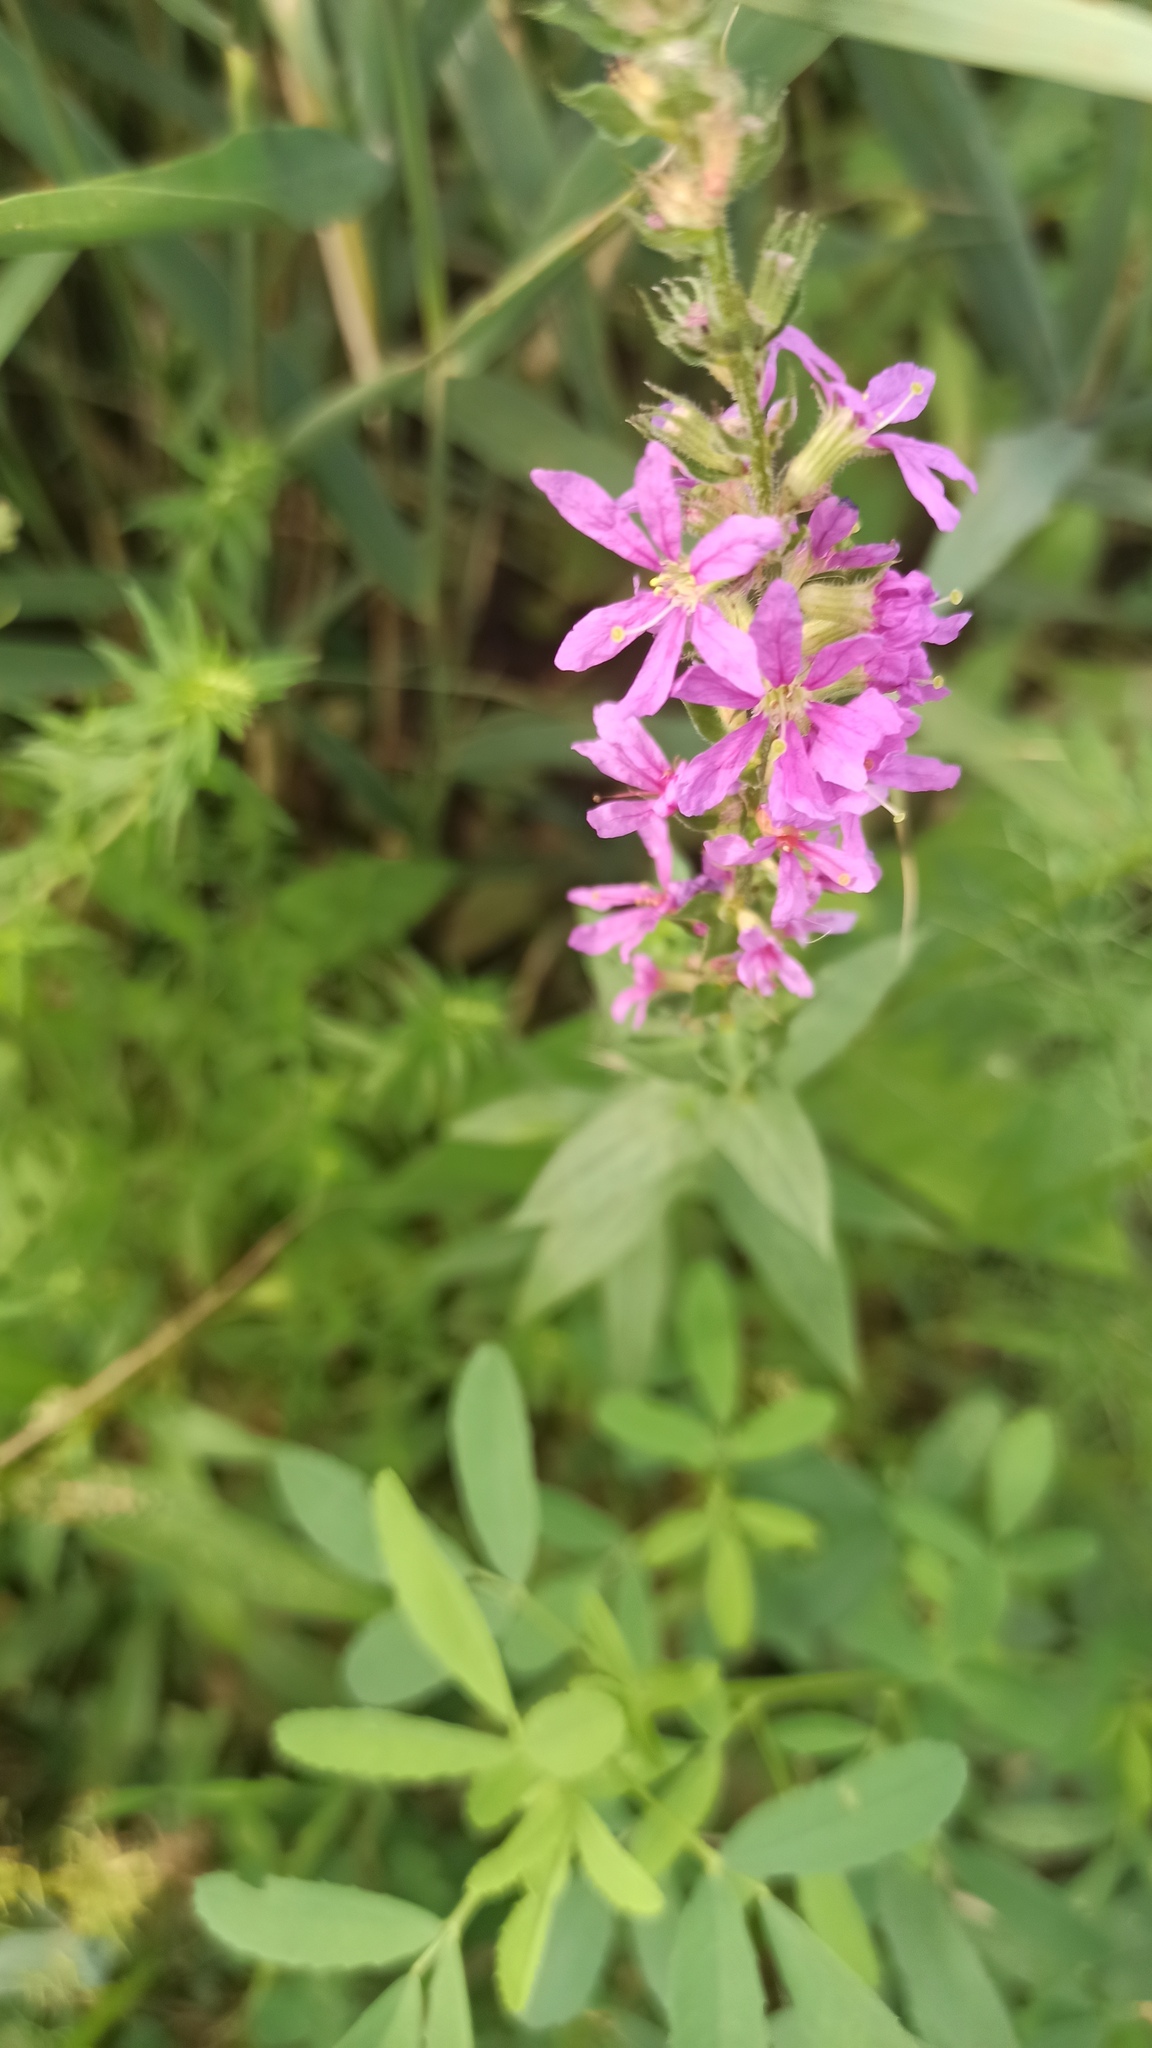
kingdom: Plantae
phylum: Tracheophyta
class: Magnoliopsida
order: Myrtales
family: Lythraceae
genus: Lythrum
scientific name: Lythrum salicaria
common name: Purple loosestrife
